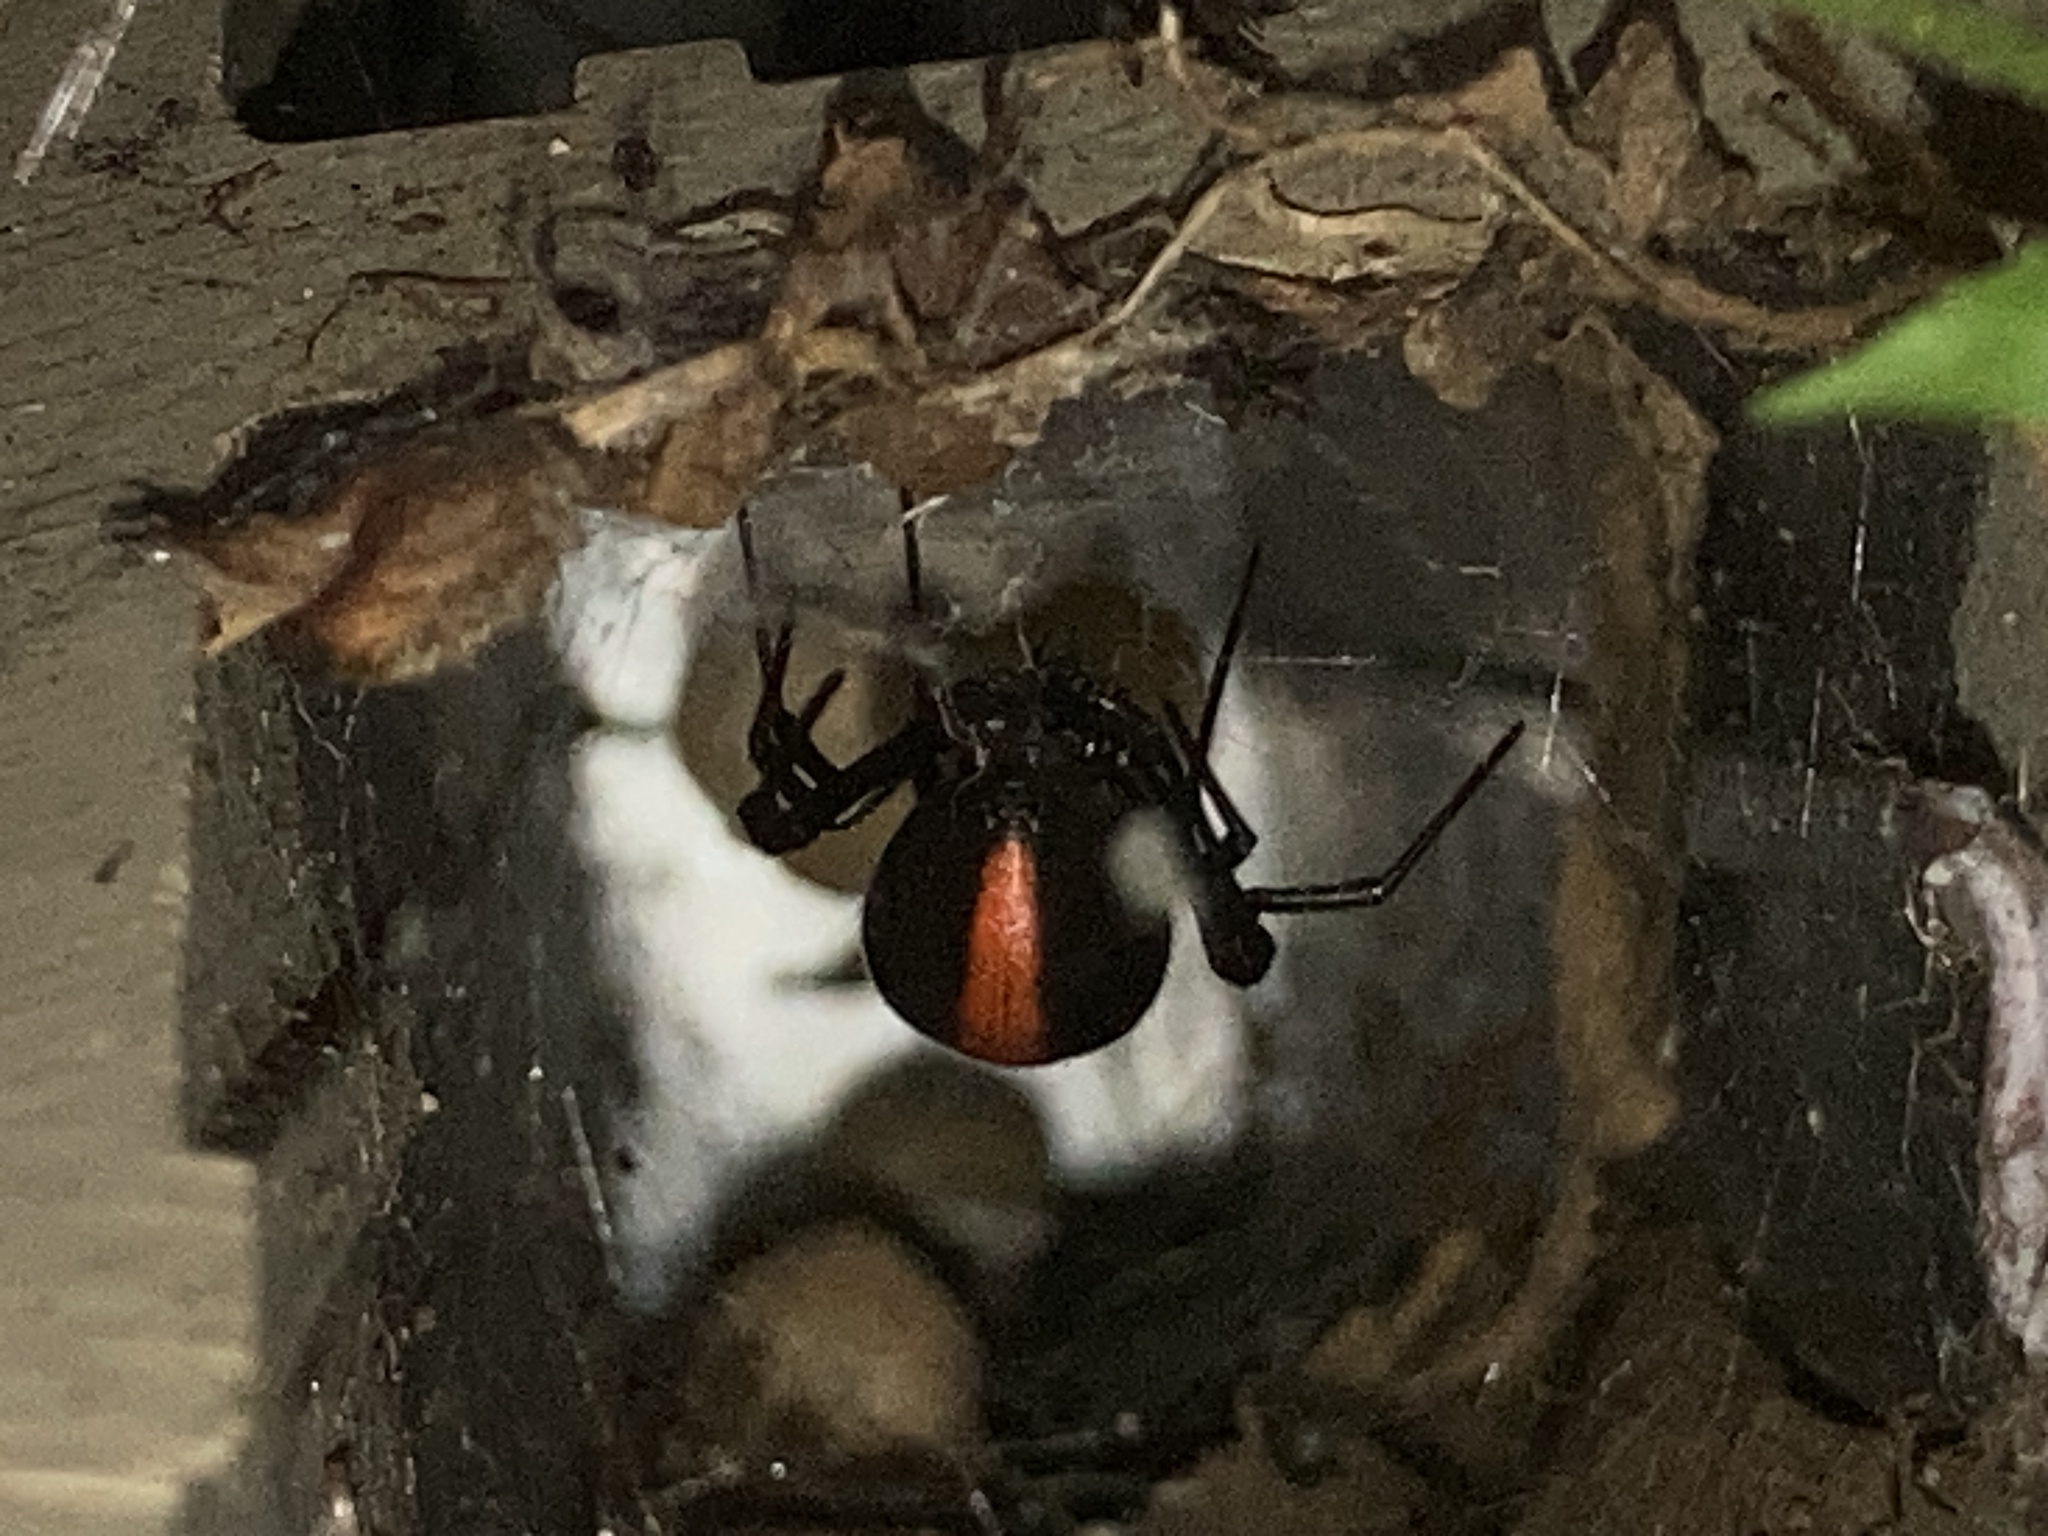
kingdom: Animalia
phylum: Arthropoda
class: Arachnida
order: Araneae
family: Theridiidae
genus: Latrodectus
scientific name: Latrodectus hasselti
